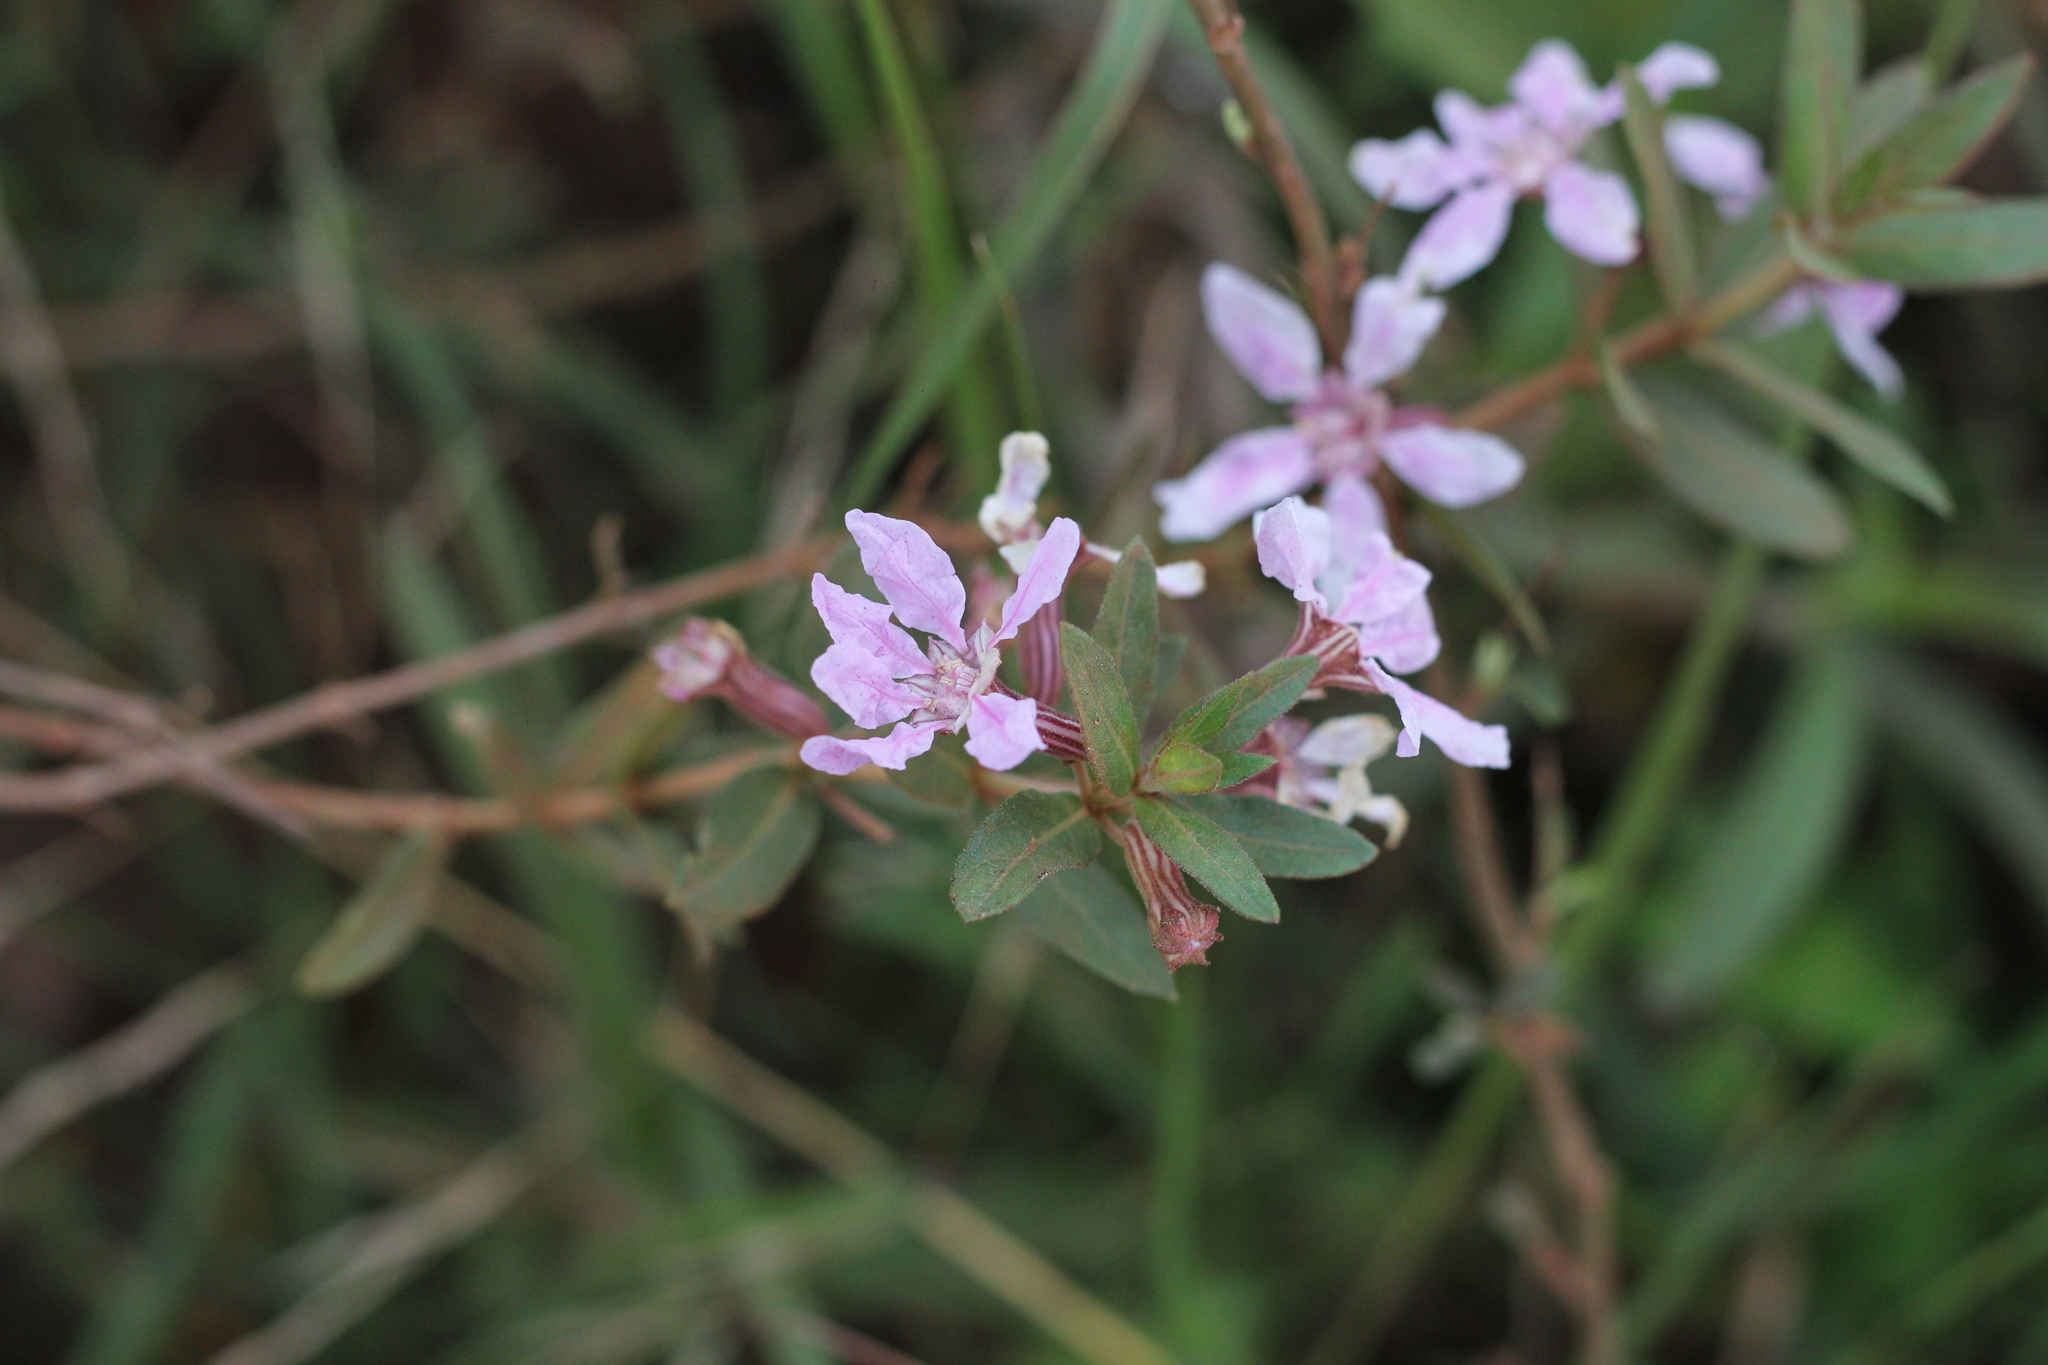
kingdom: Plantae
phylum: Tracheophyta
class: Magnoliopsida
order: Myrtales
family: Lythraceae
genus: Cuphea
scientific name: Cuphea racemosa
